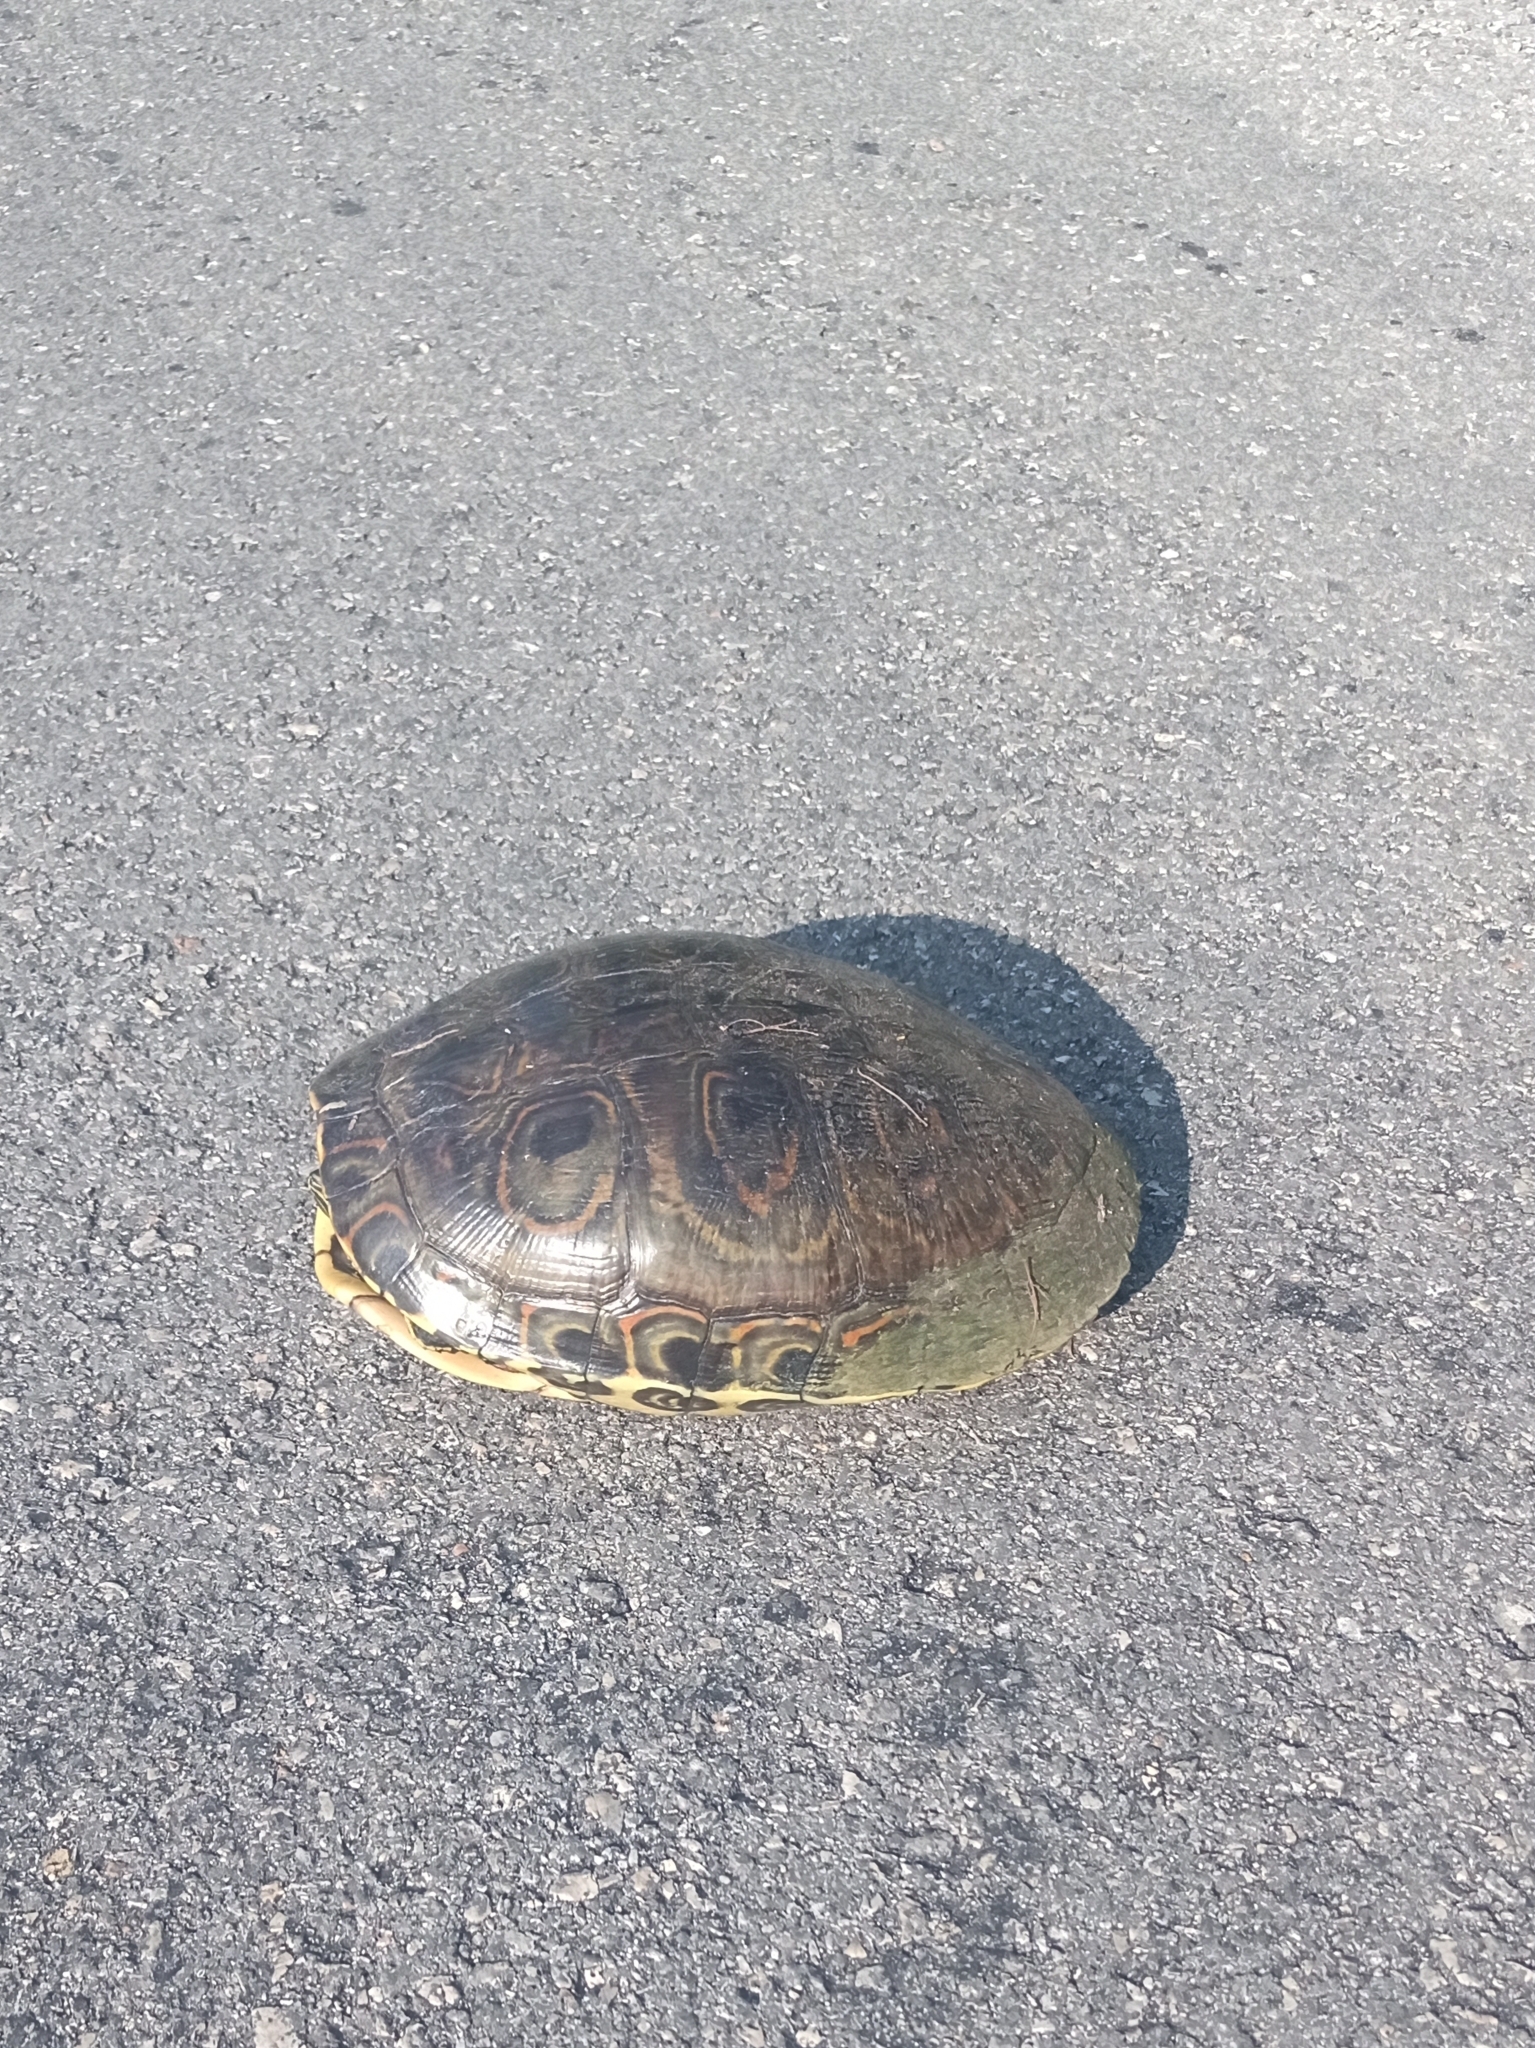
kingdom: Animalia
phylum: Chordata
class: Testudines
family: Emydidae
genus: Trachemys
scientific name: Trachemys venusta
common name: Mesoamerican slider
